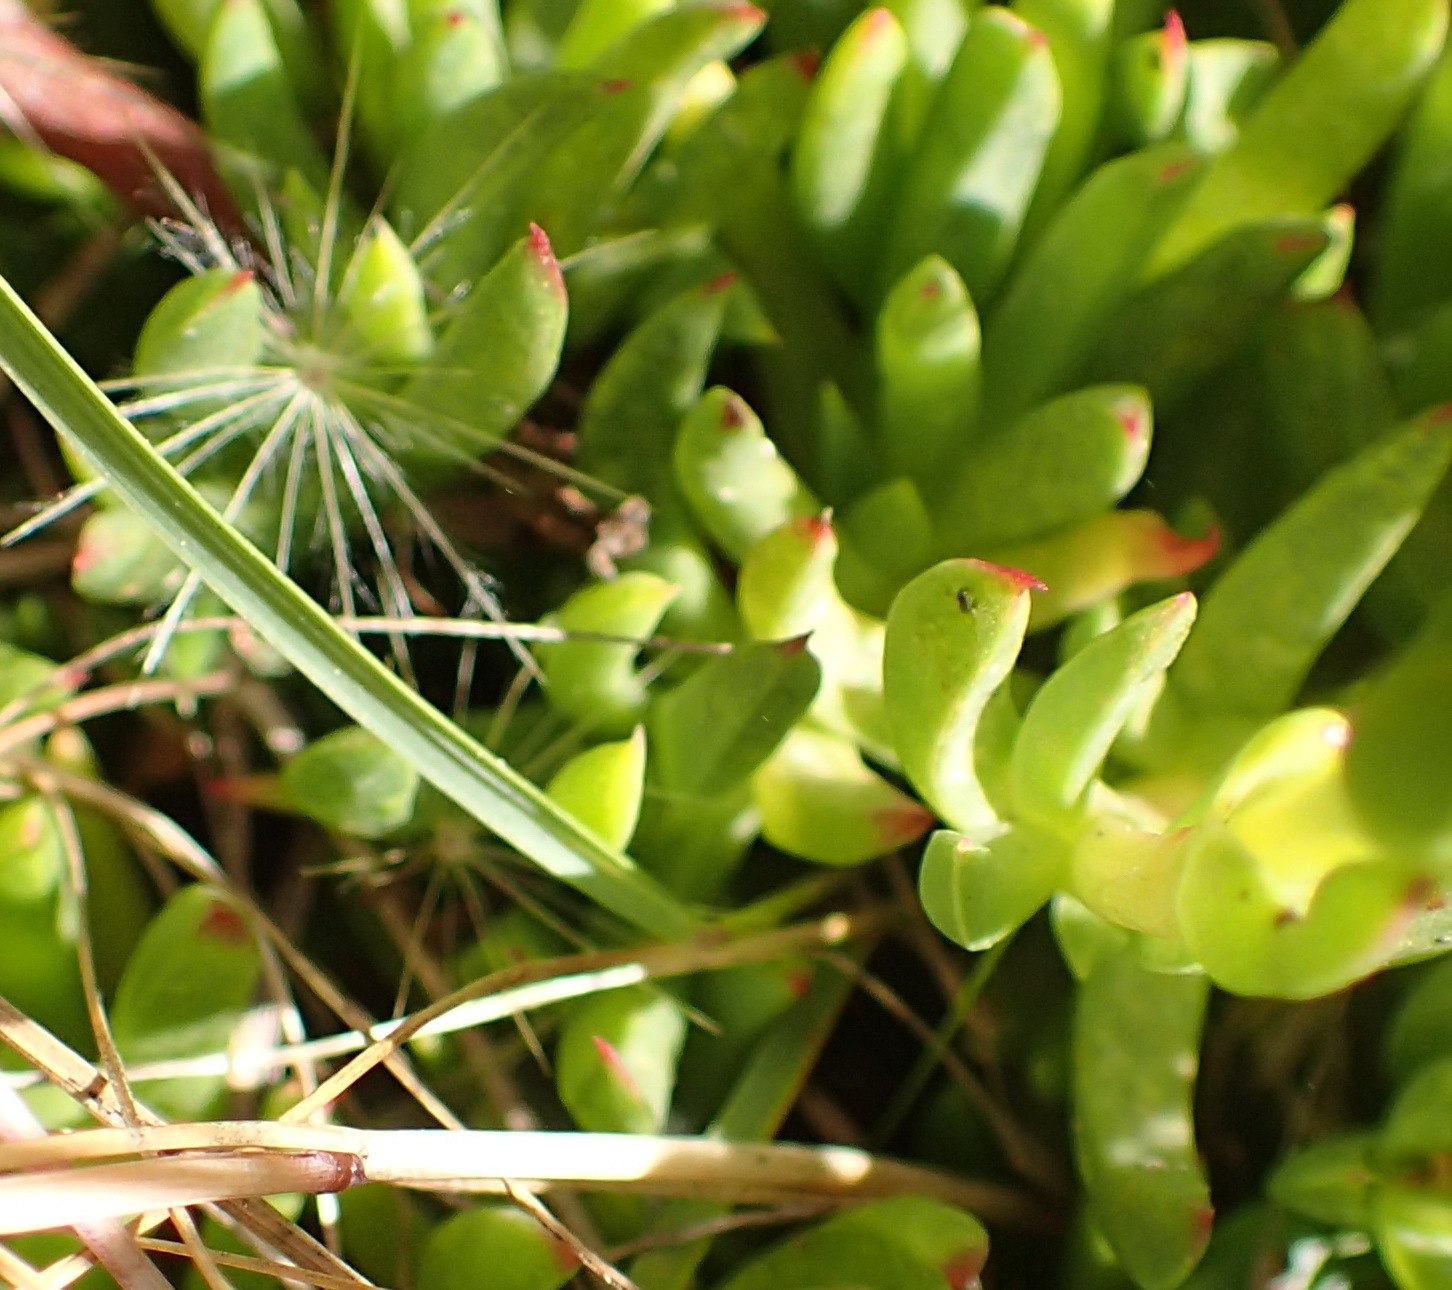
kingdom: Plantae
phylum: Tracheophyta
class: Magnoliopsida
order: Caryophyllales
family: Aizoaceae
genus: Ruschia
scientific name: Ruschia duthiae
